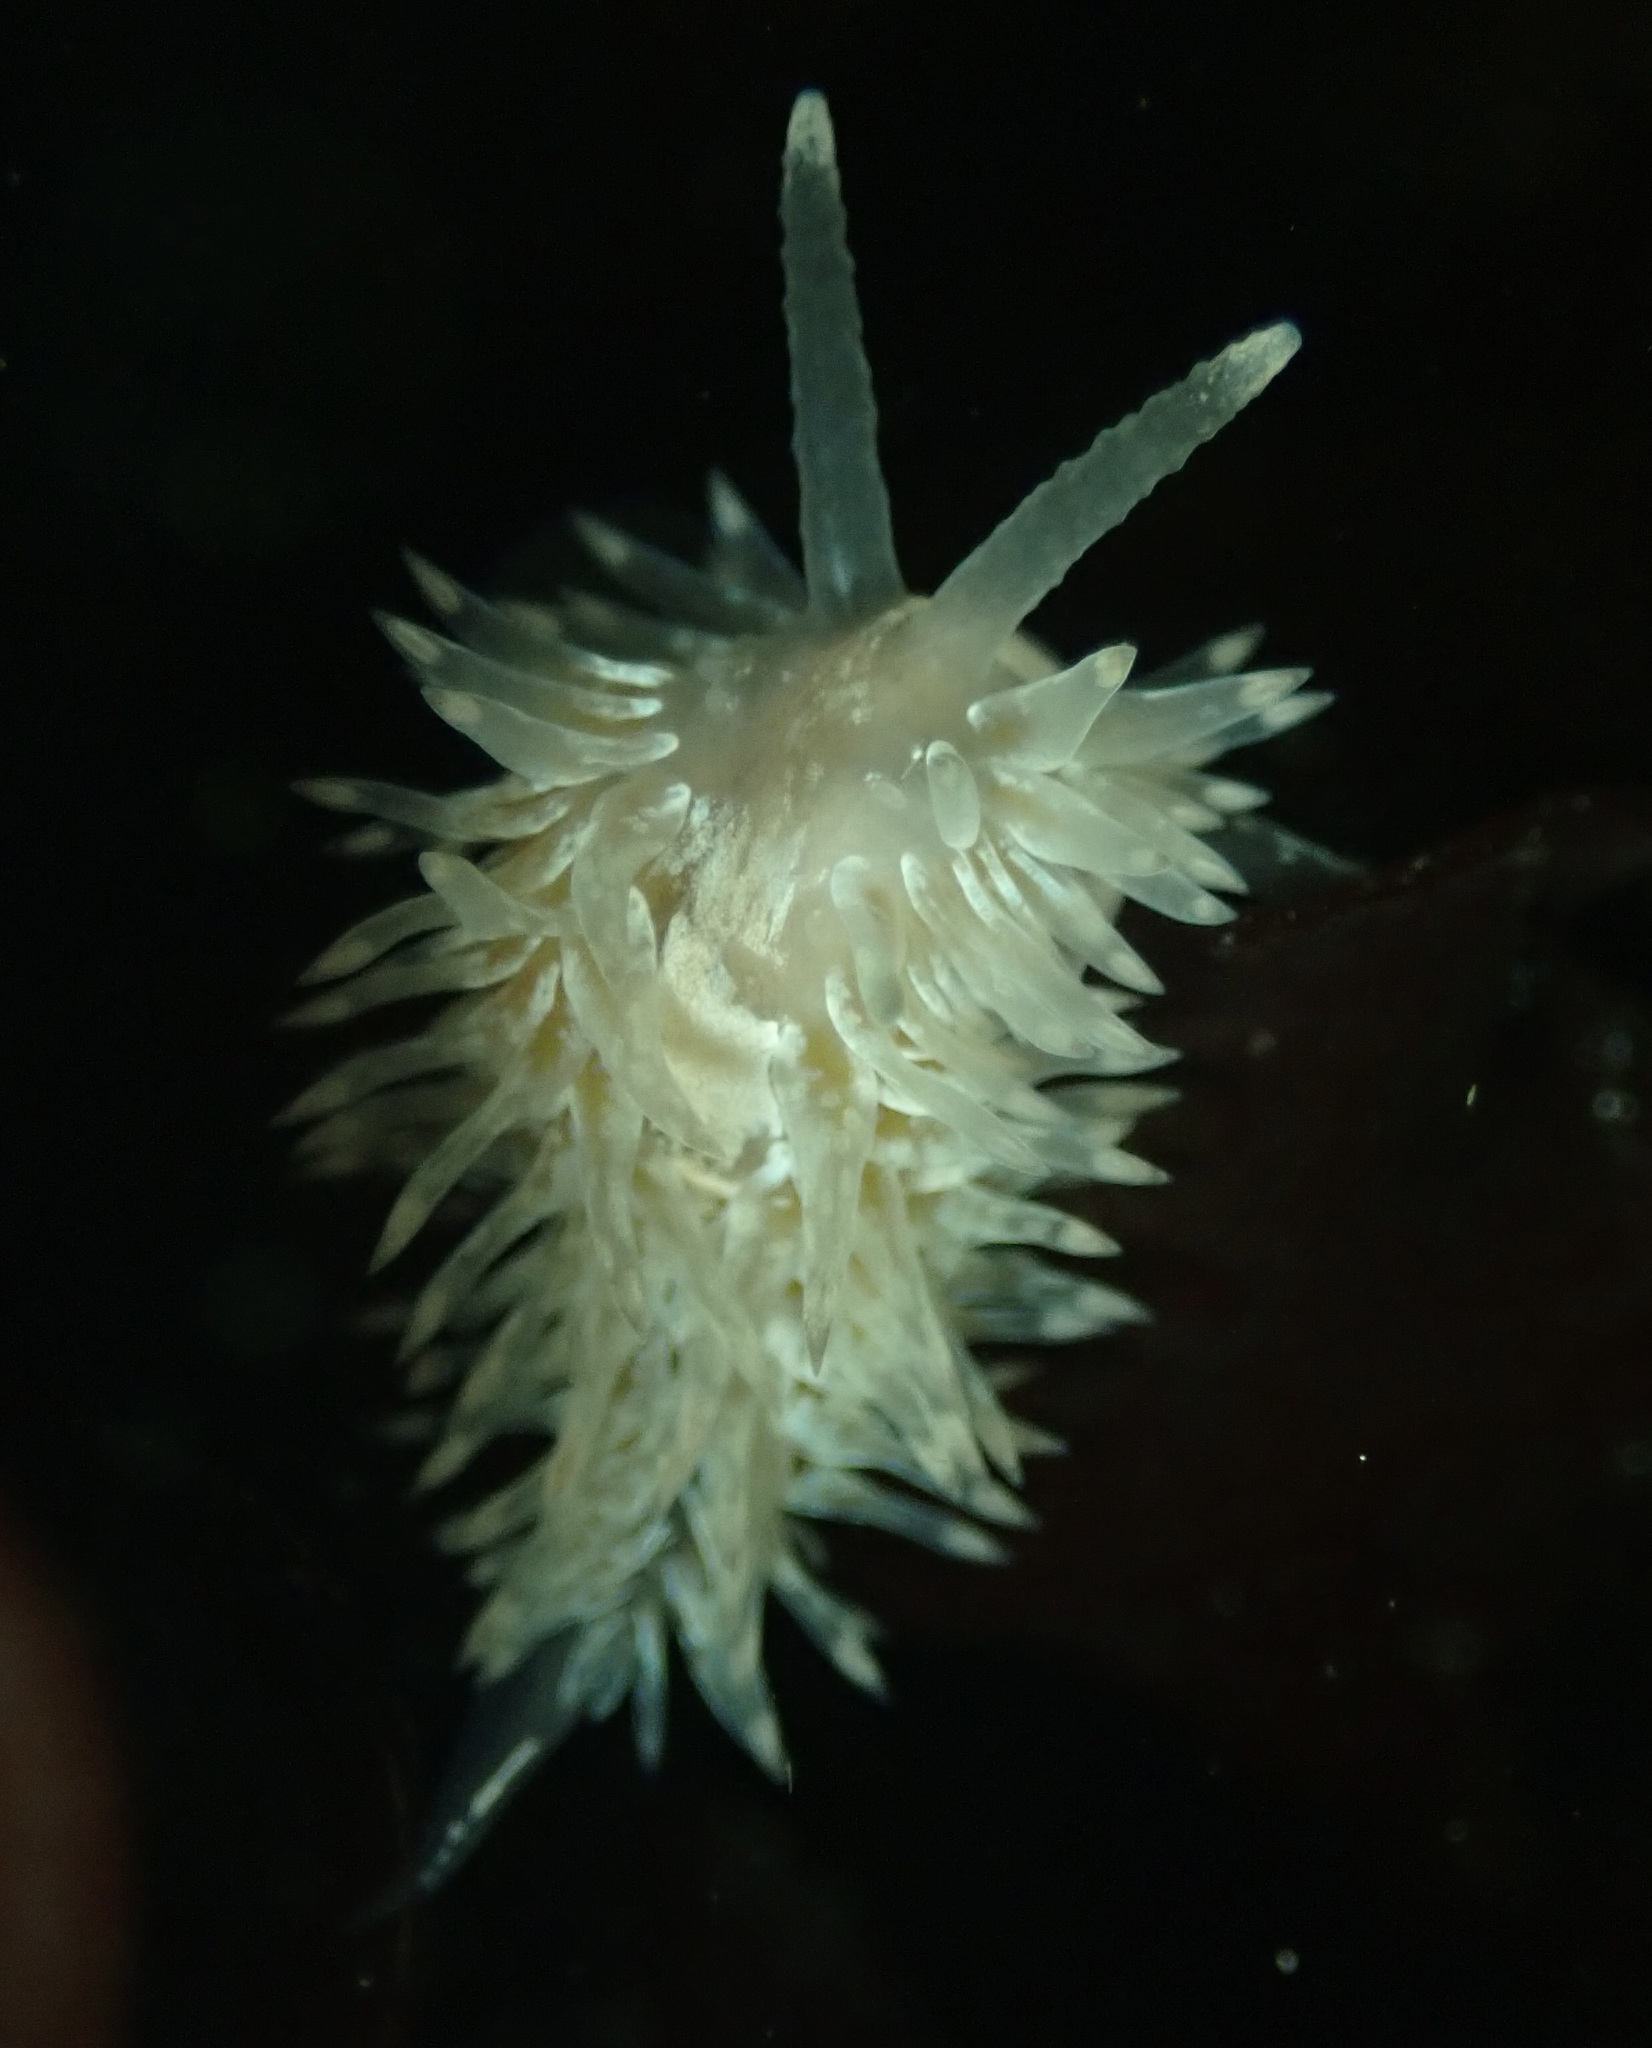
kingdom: Animalia
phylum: Mollusca
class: Gastropoda
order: Nudibranchia
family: Aeolidiidae
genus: Aeolidia
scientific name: Aeolidia loui
